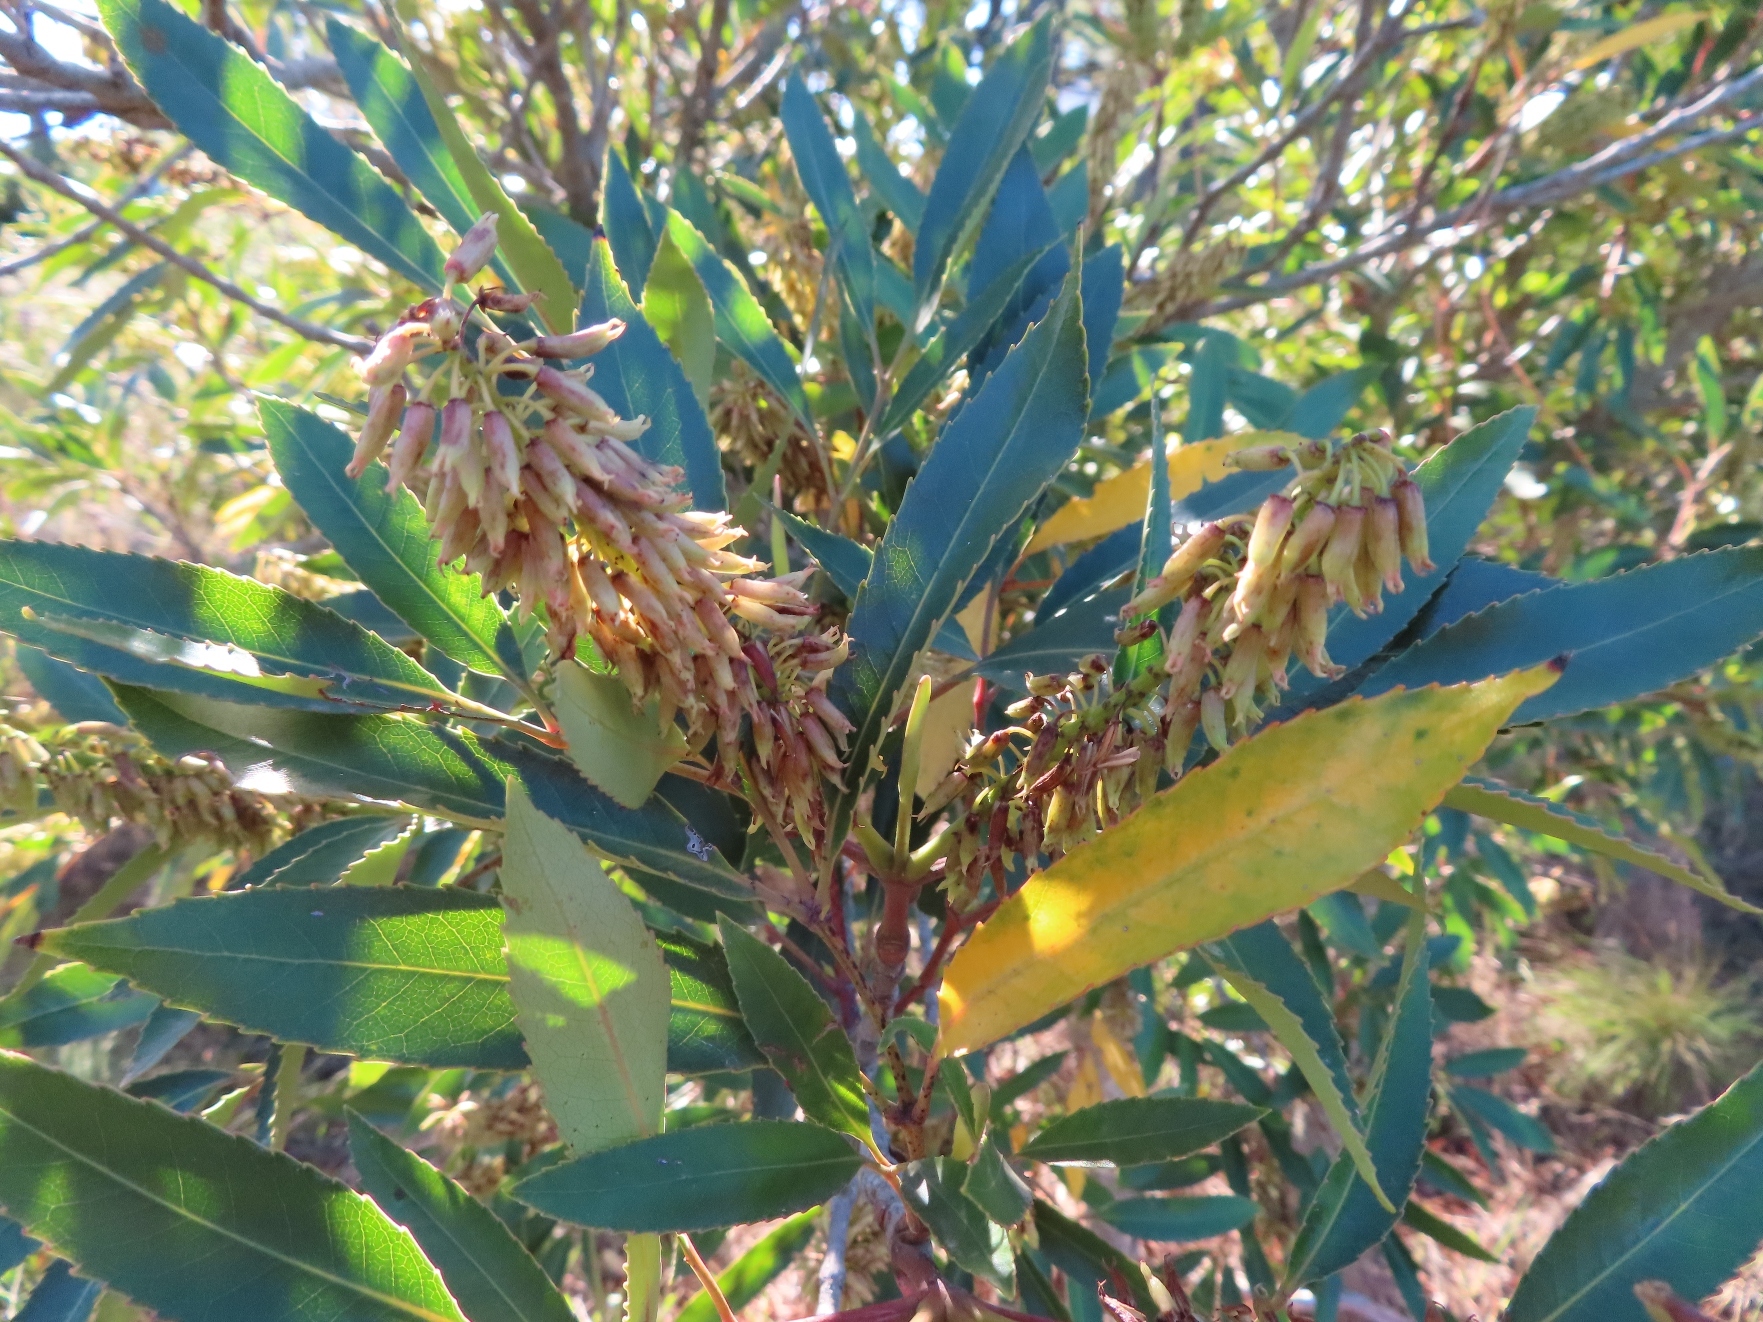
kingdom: Plantae
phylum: Tracheophyta
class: Magnoliopsida
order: Oxalidales
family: Cunoniaceae
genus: Cunonia
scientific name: Cunonia capensis
